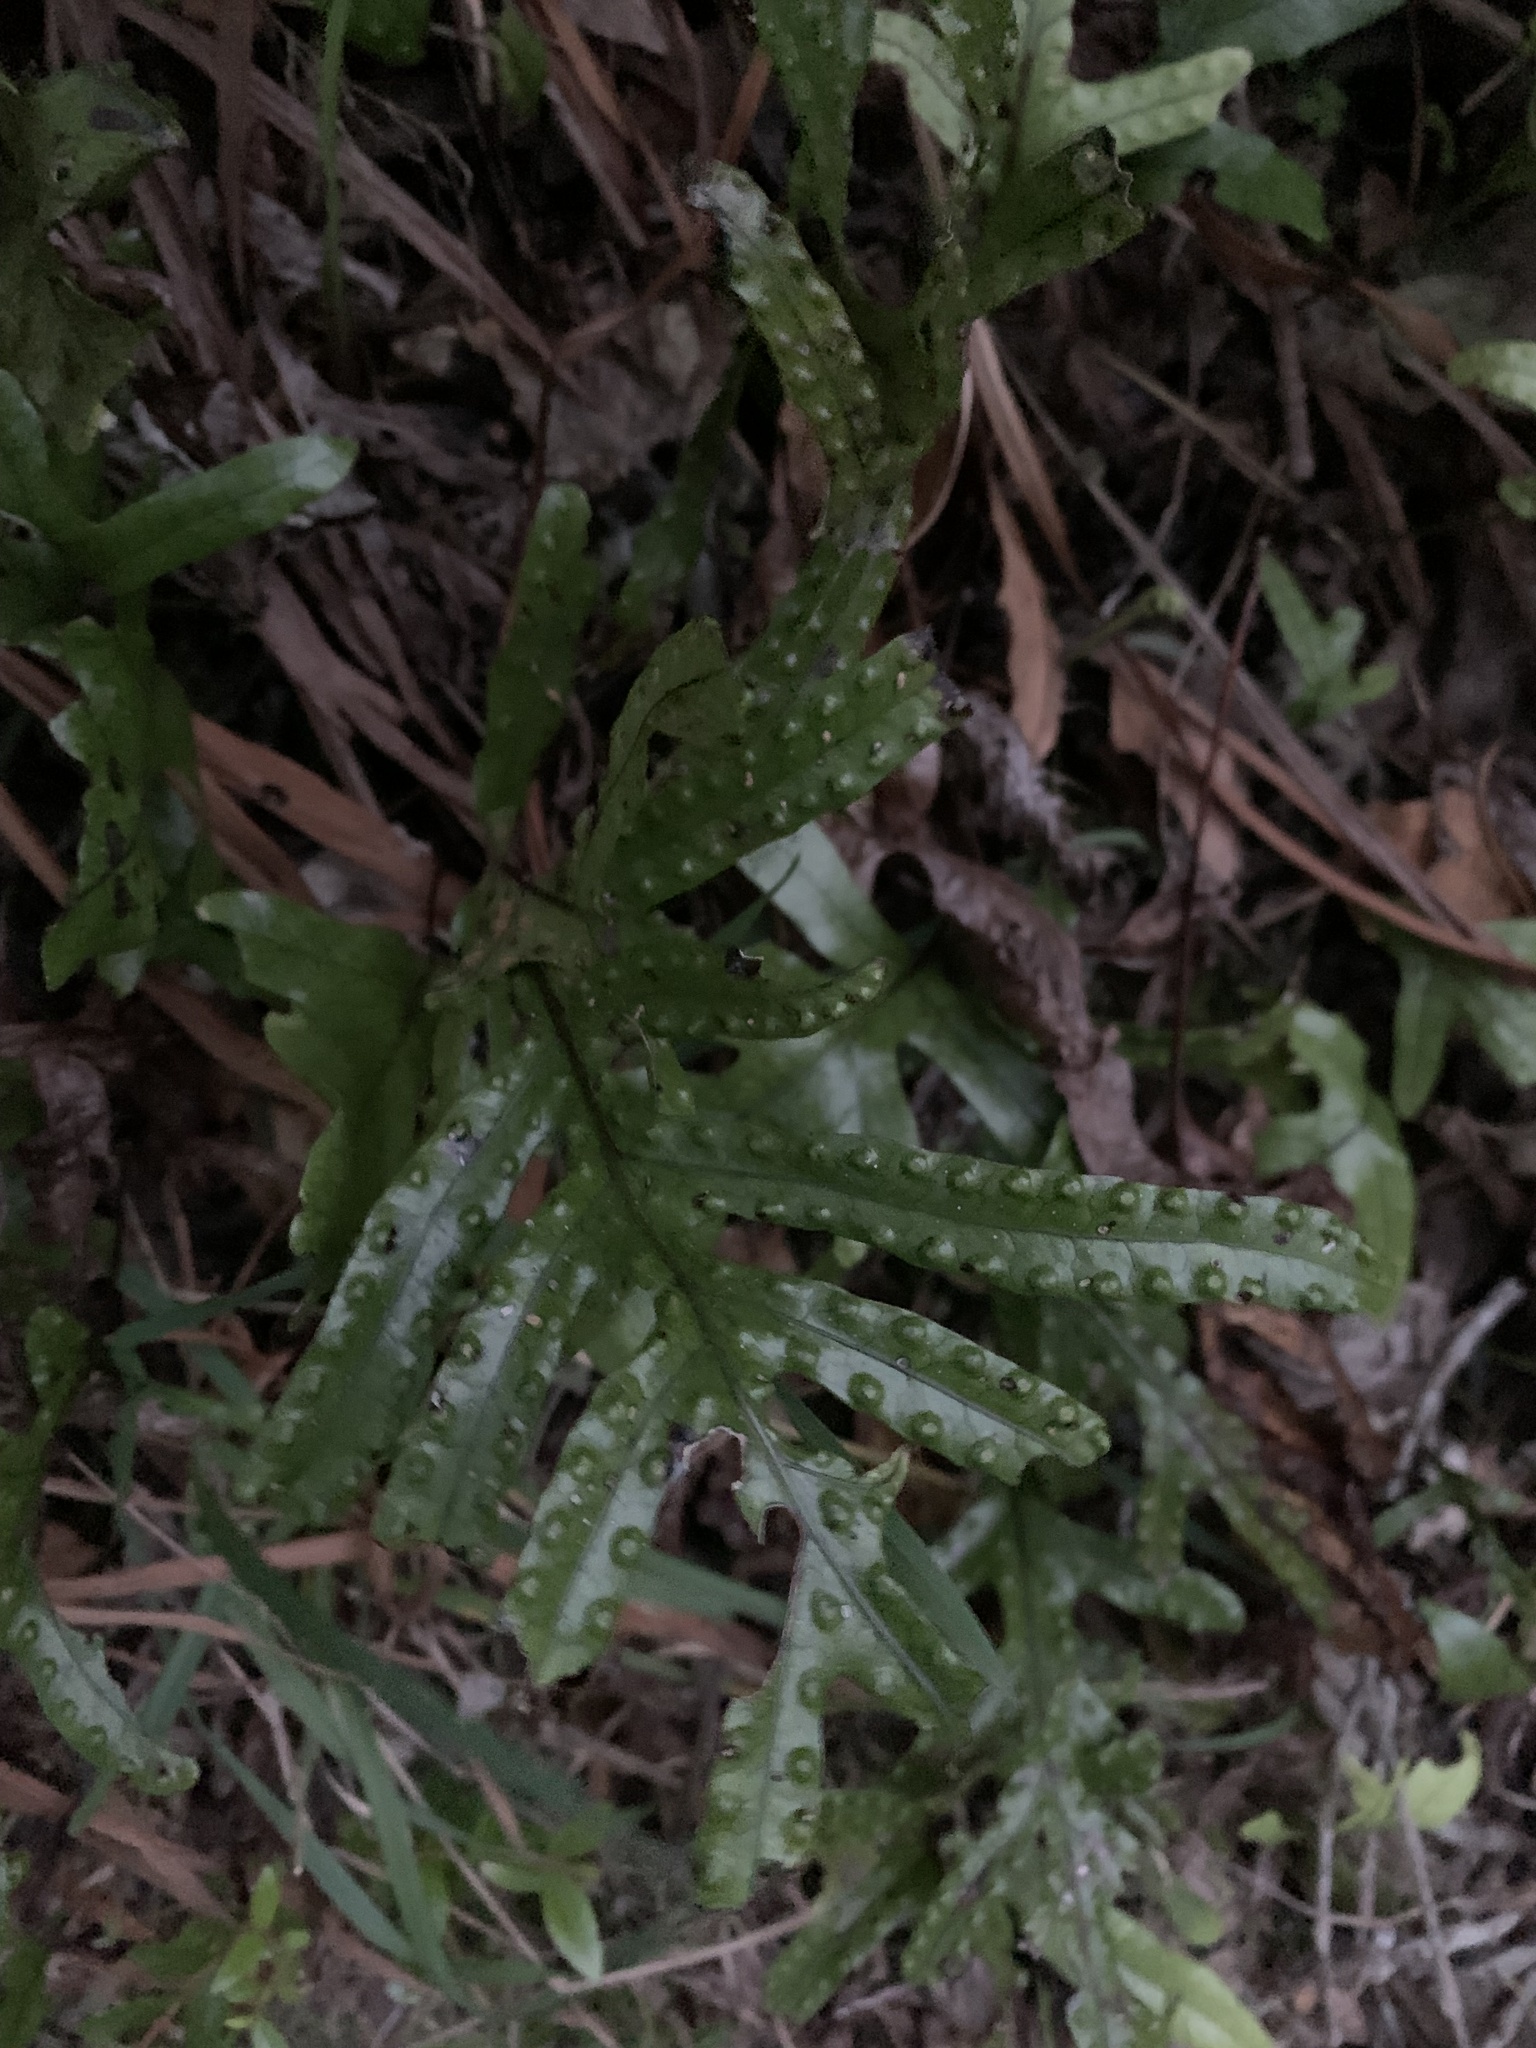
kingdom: Plantae
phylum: Tracheophyta
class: Polypodiopsida
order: Polypodiales
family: Polypodiaceae
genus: Lecanopteris
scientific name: Lecanopteris pustulata
